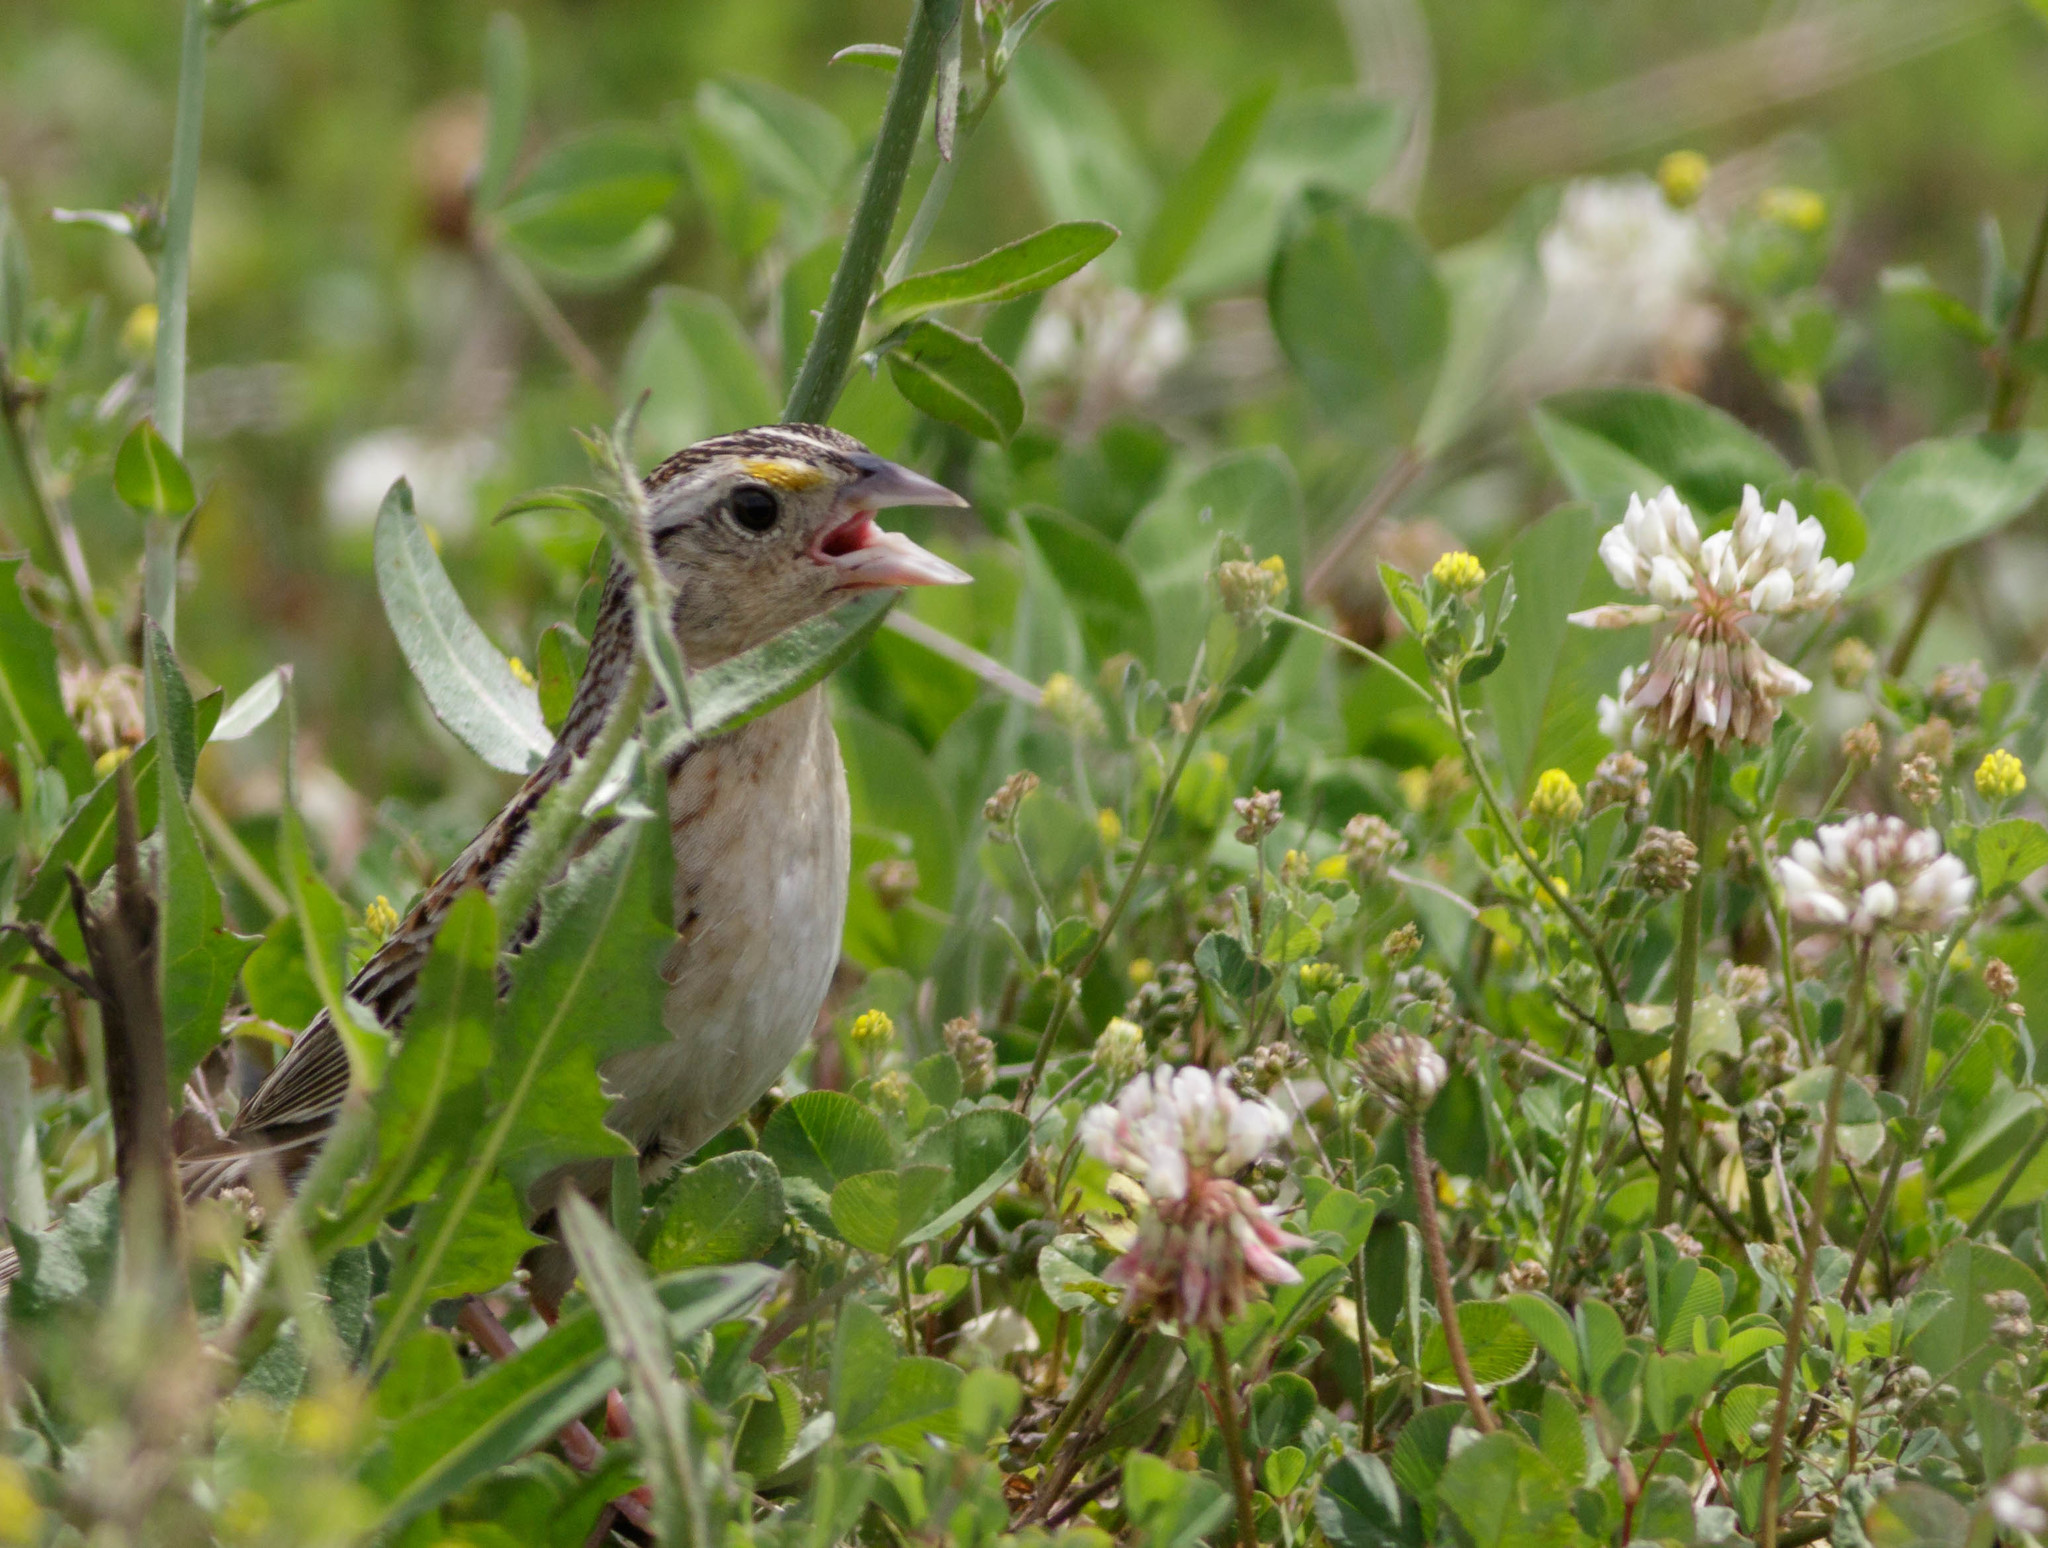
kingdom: Animalia
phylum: Chordata
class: Aves
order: Passeriformes
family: Passerellidae
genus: Ammodramus
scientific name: Ammodramus savannarum
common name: Grasshopper sparrow
